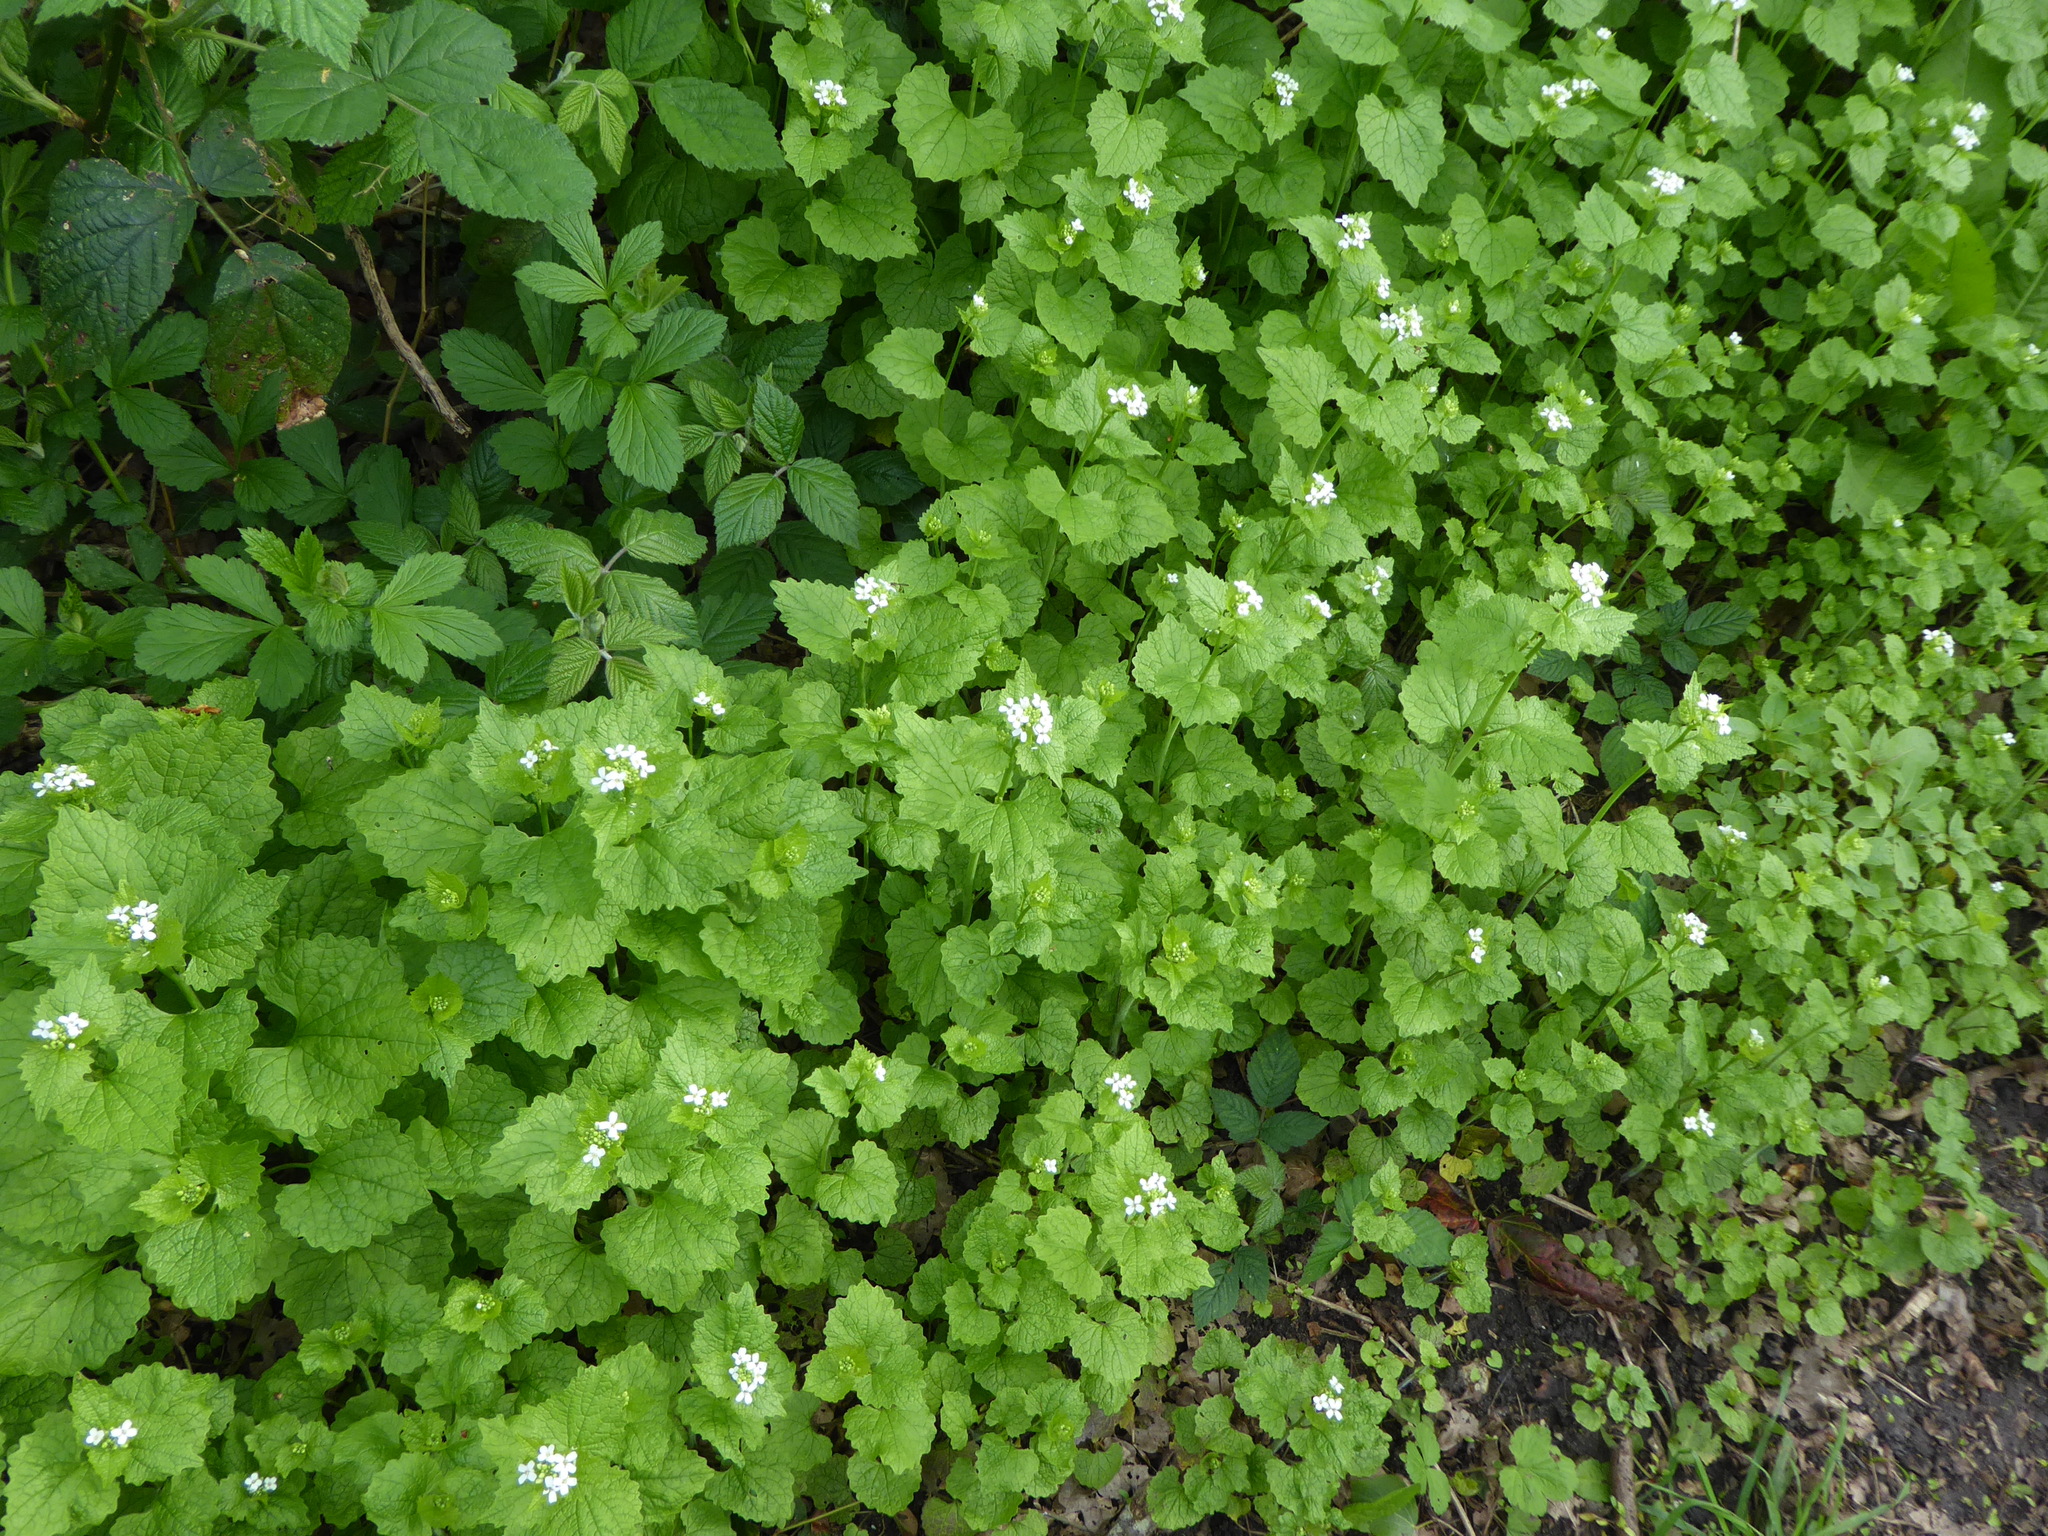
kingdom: Plantae
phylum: Tracheophyta
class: Magnoliopsida
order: Brassicales
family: Brassicaceae
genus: Alliaria
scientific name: Alliaria petiolata
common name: Garlic mustard
